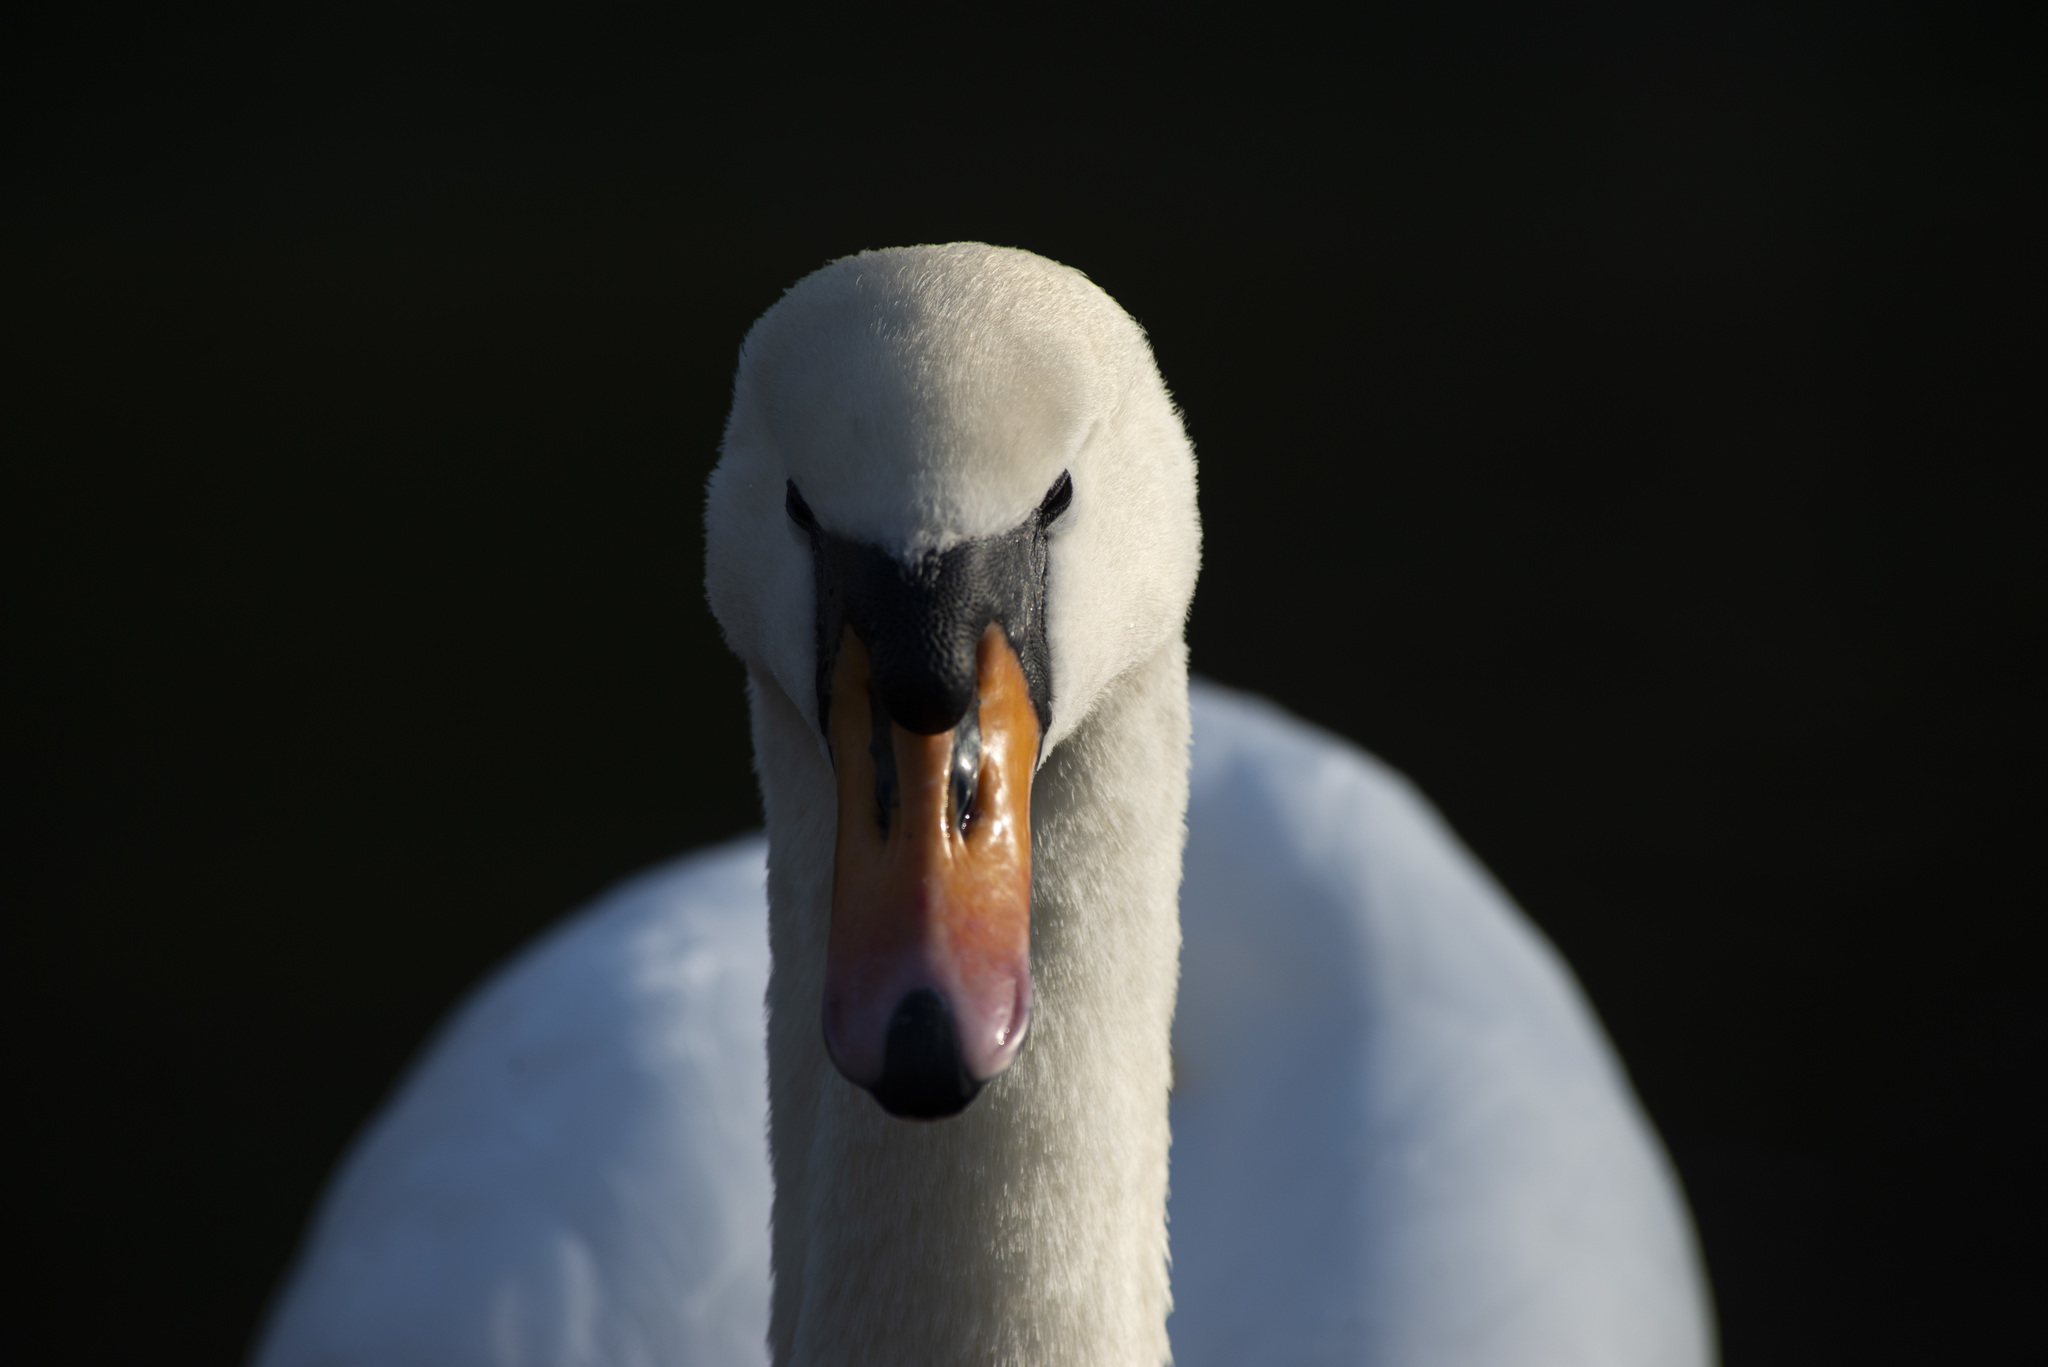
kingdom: Animalia
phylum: Chordata
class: Aves
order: Anseriformes
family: Anatidae
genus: Cygnus
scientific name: Cygnus olor
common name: Mute swan
